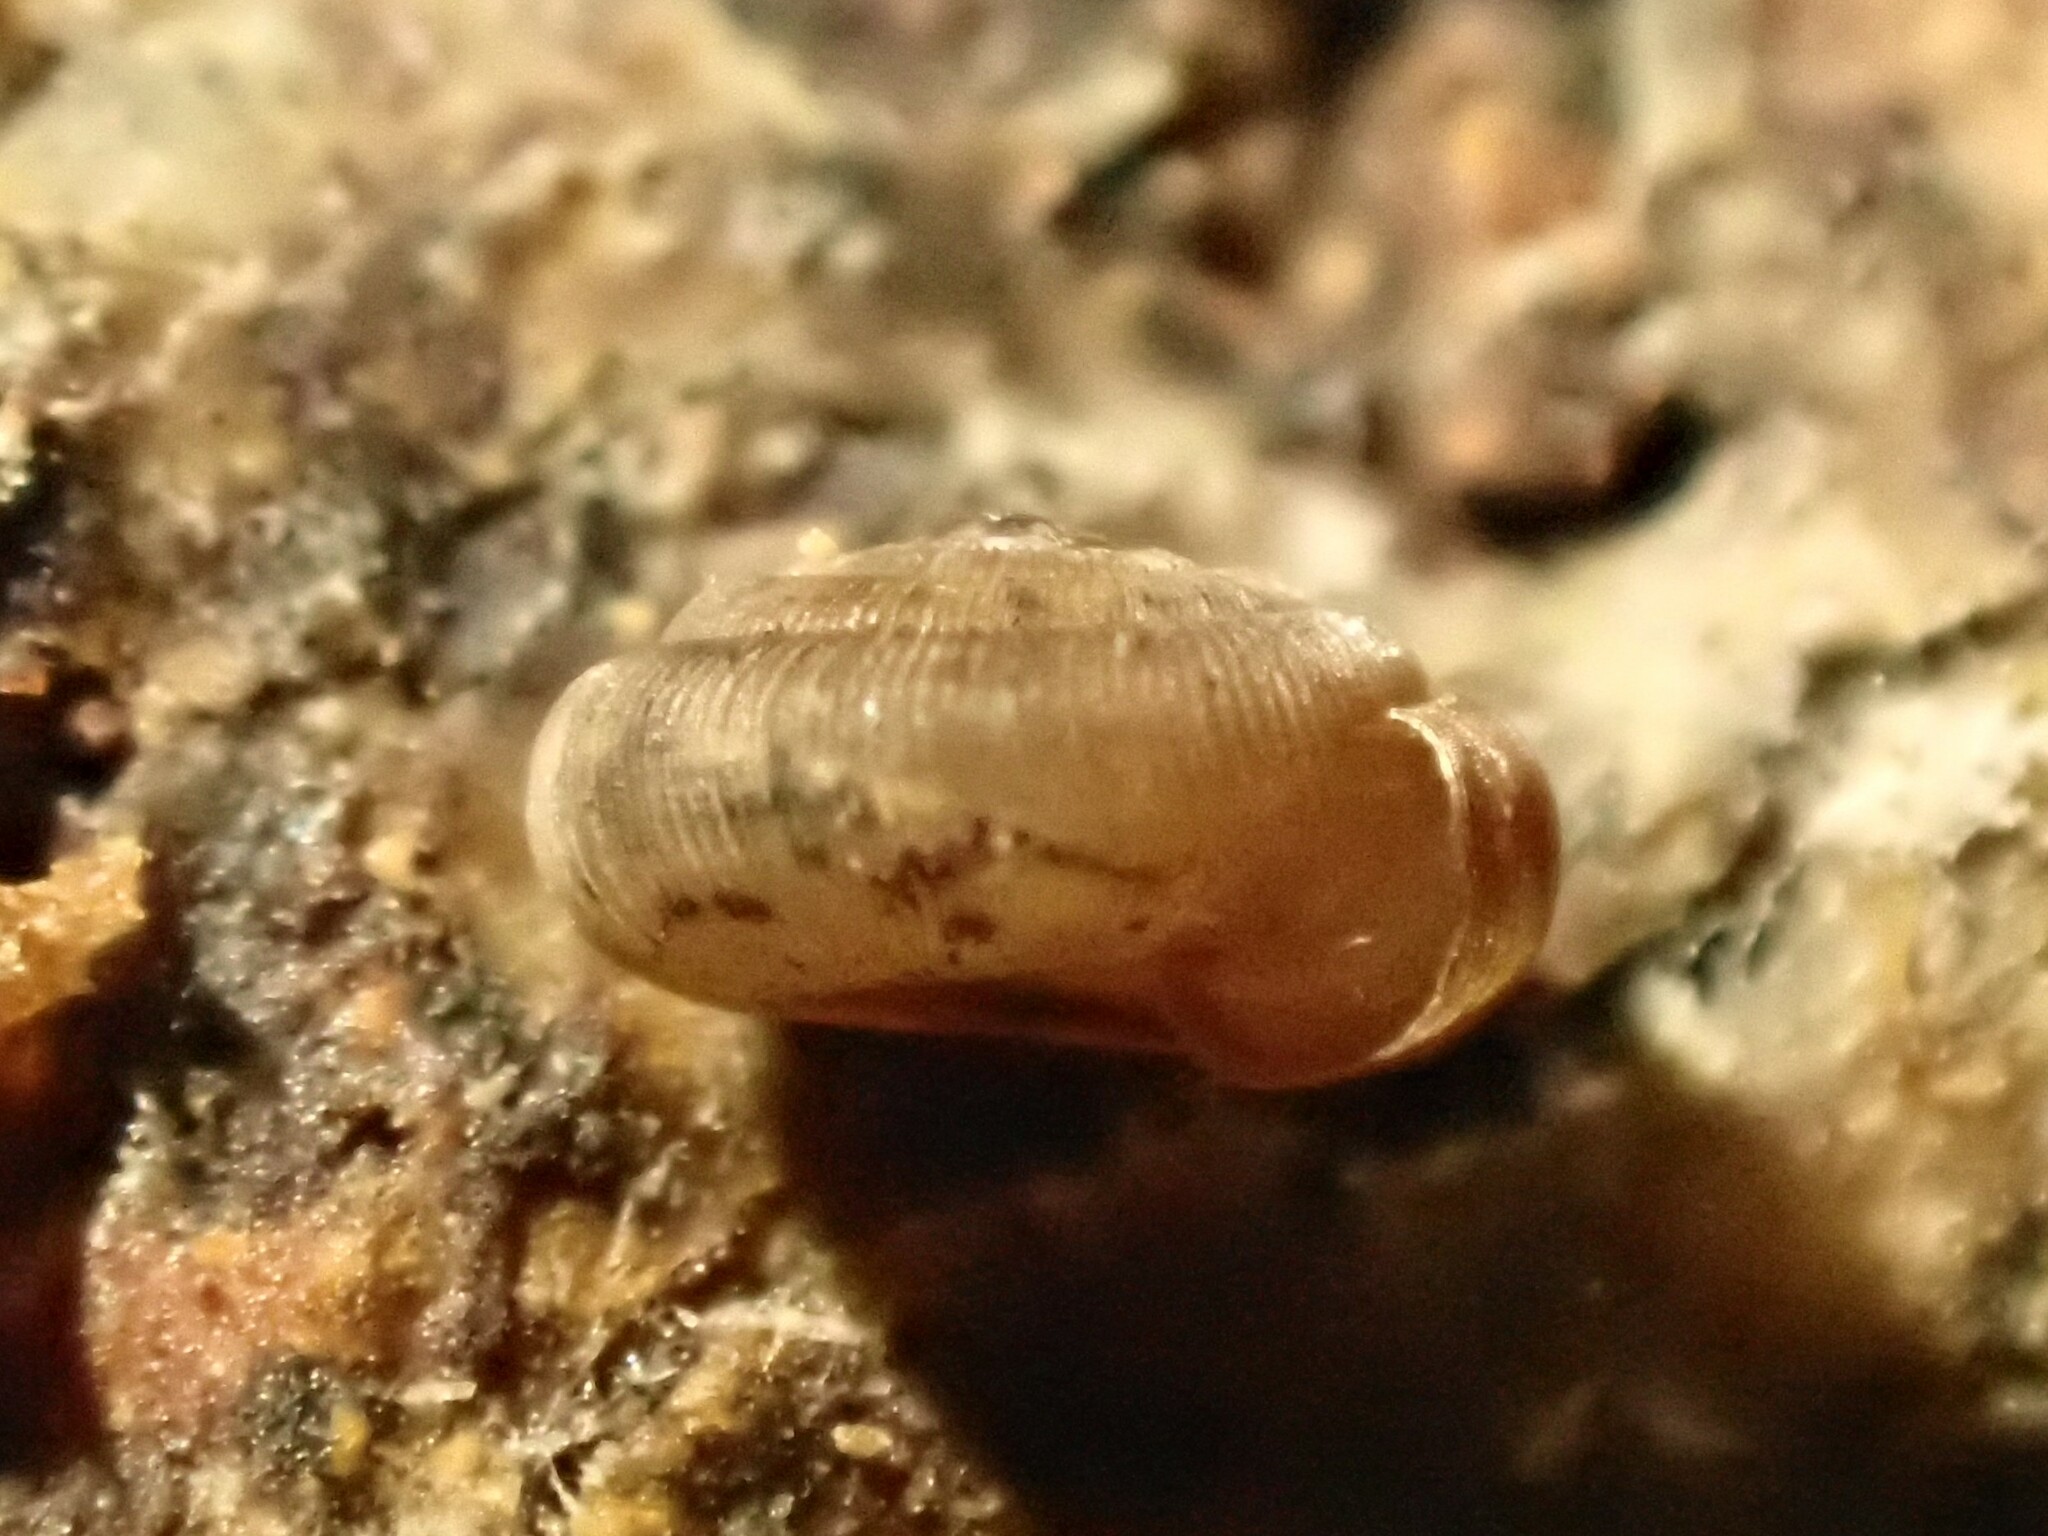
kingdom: Animalia
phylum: Mollusca
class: Gastropoda
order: Stylommatophora
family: Charopidae
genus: Charopa
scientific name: Charopa longstaffae
